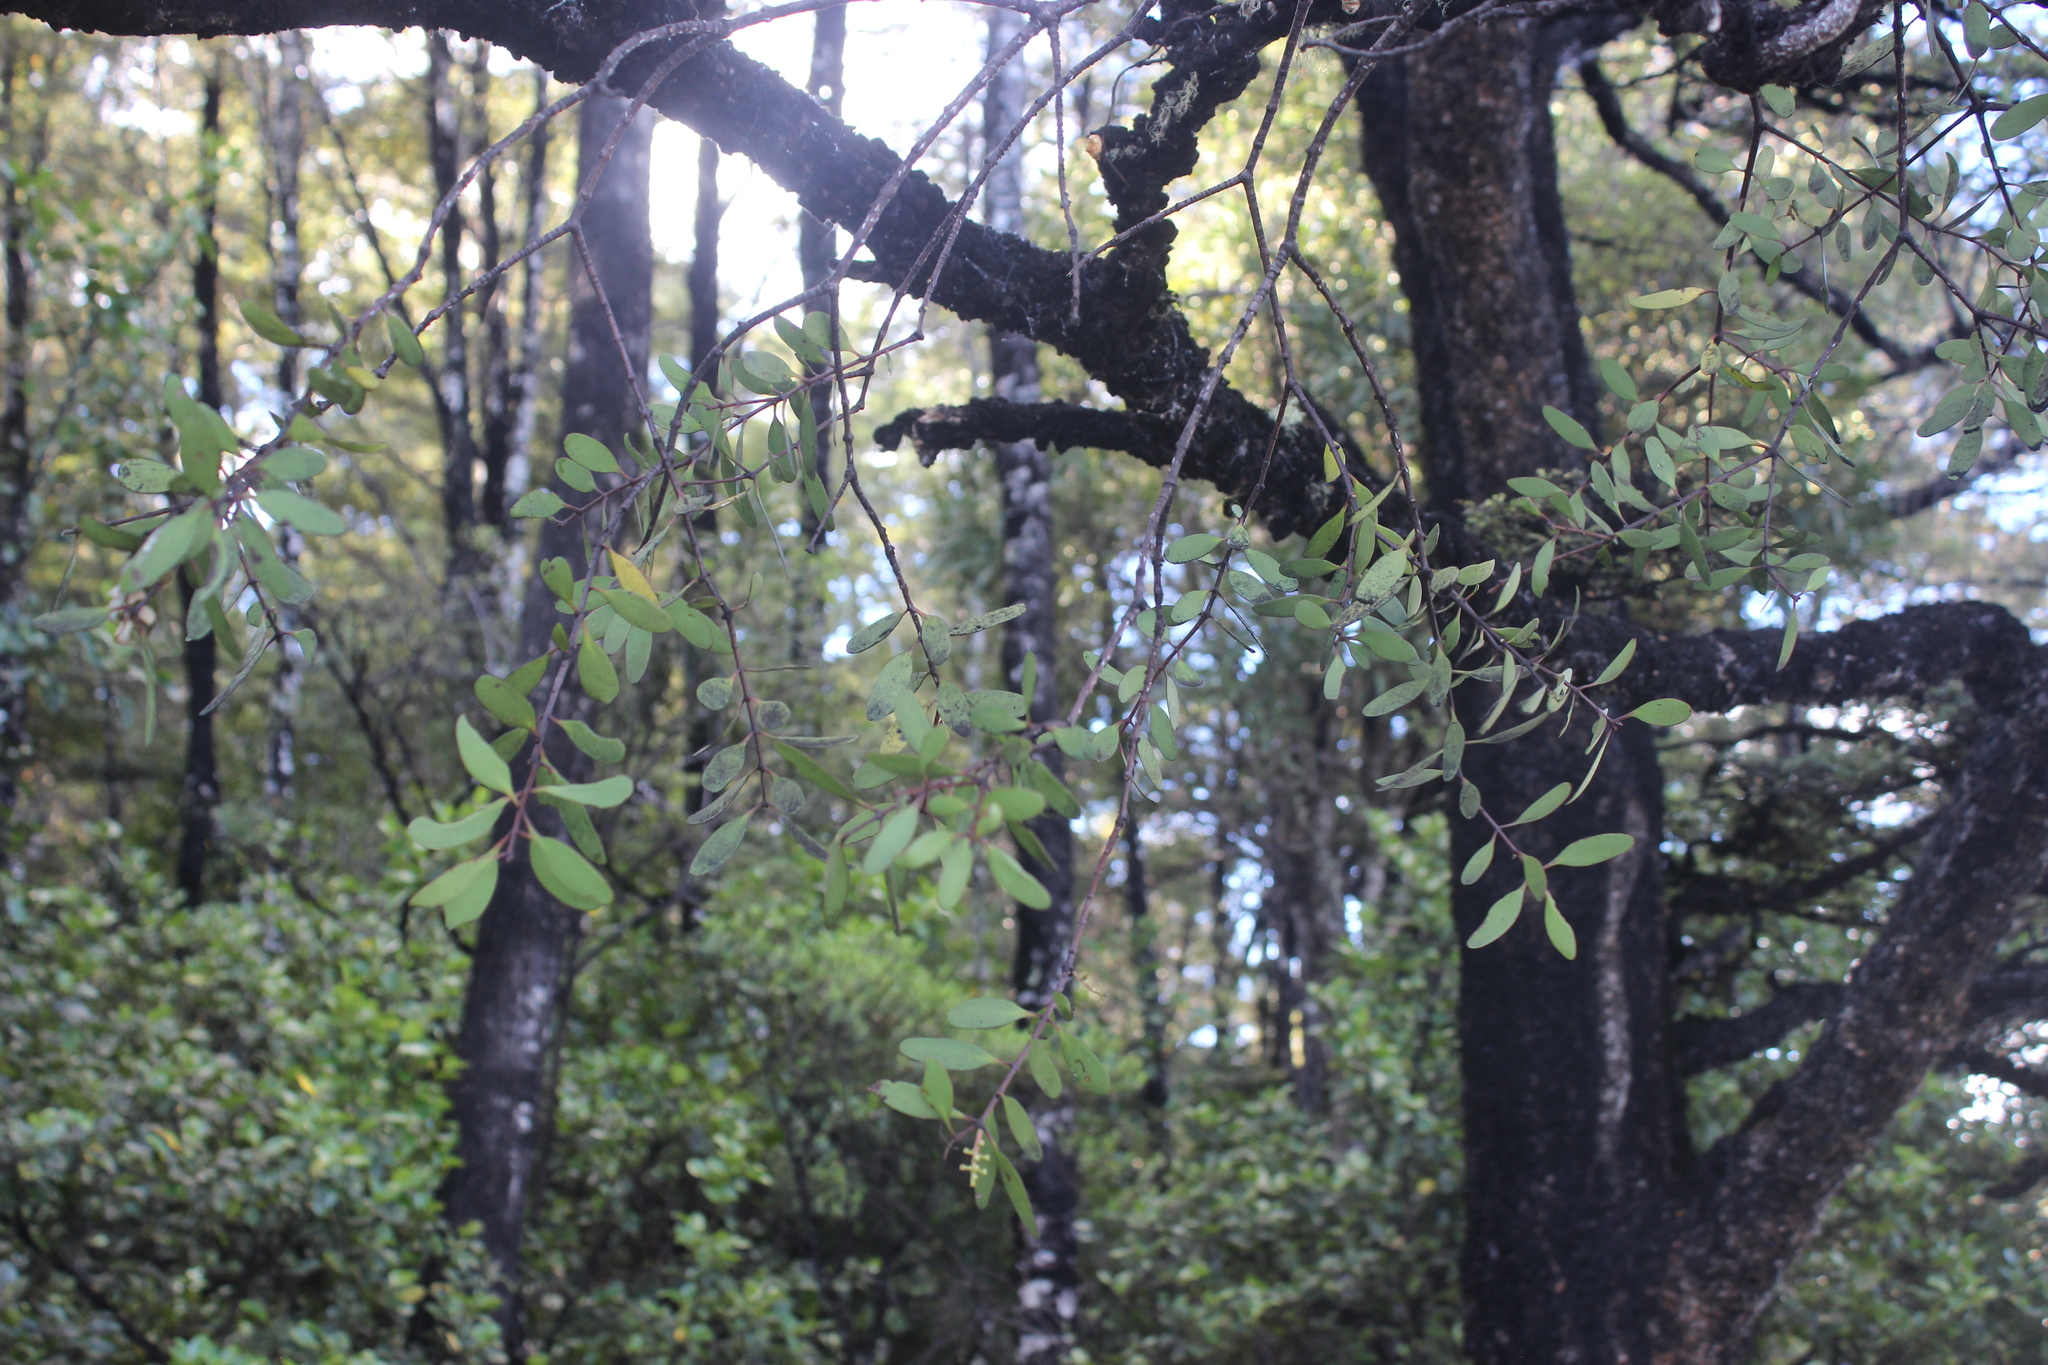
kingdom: Plantae
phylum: Tracheophyta
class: Magnoliopsida
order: Santalales
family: Loranthaceae
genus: Alepis
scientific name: Alepis flavida
